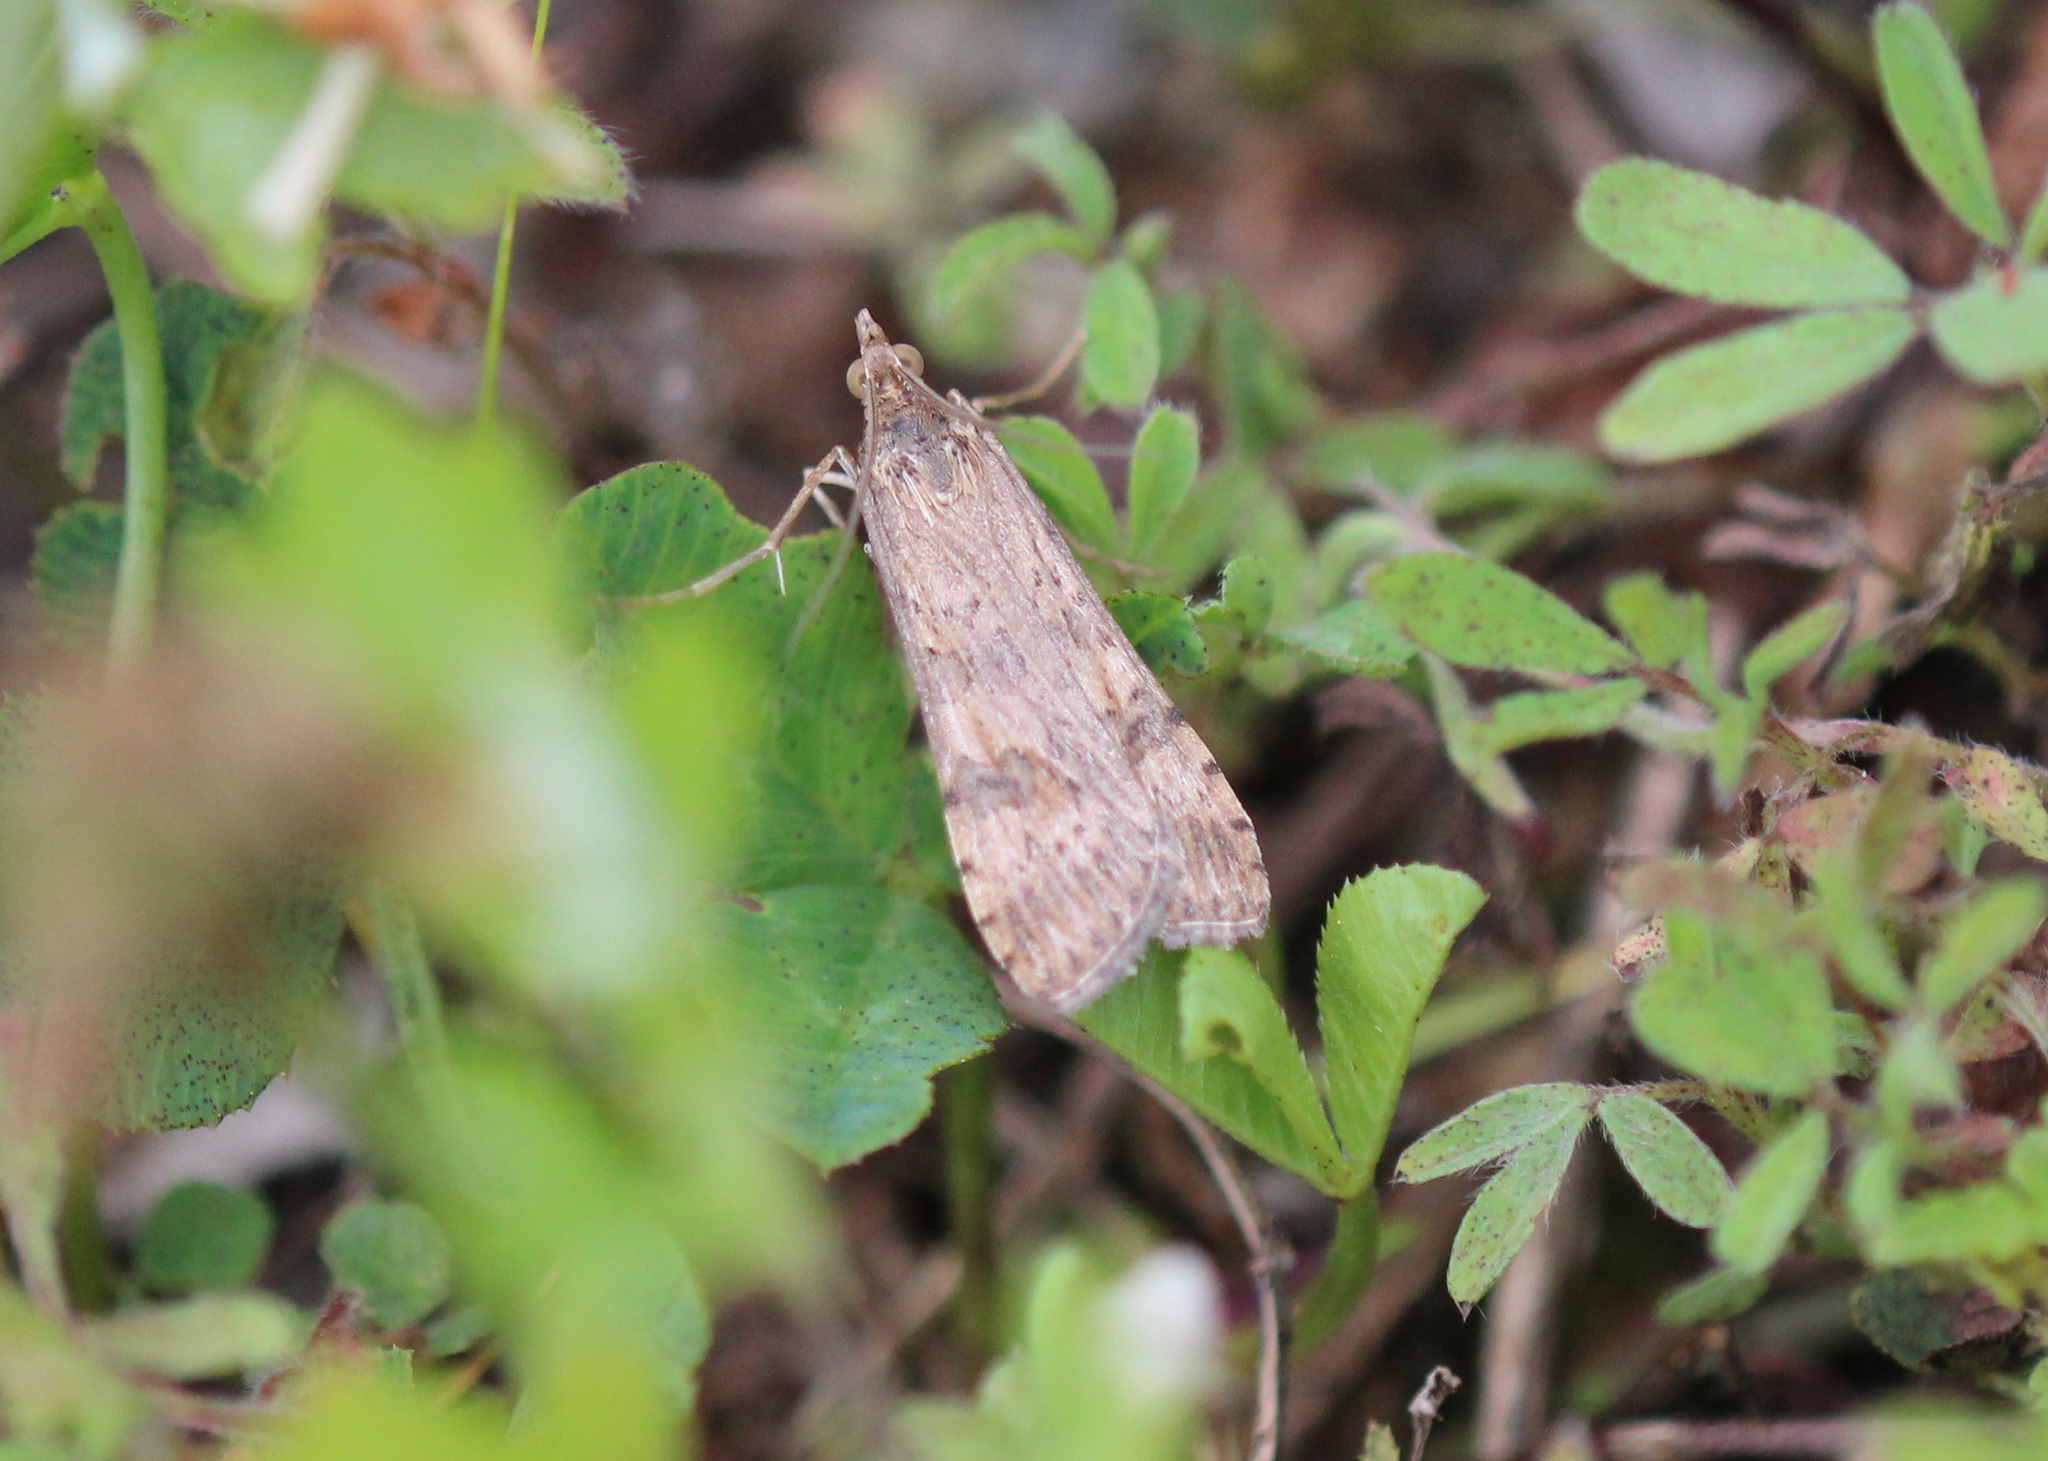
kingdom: Animalia
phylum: Arthropoda
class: Insecta
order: Lepidoptera
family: Crambidae
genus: Nomophila
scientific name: Nomophila nearctica
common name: American rush veneer
